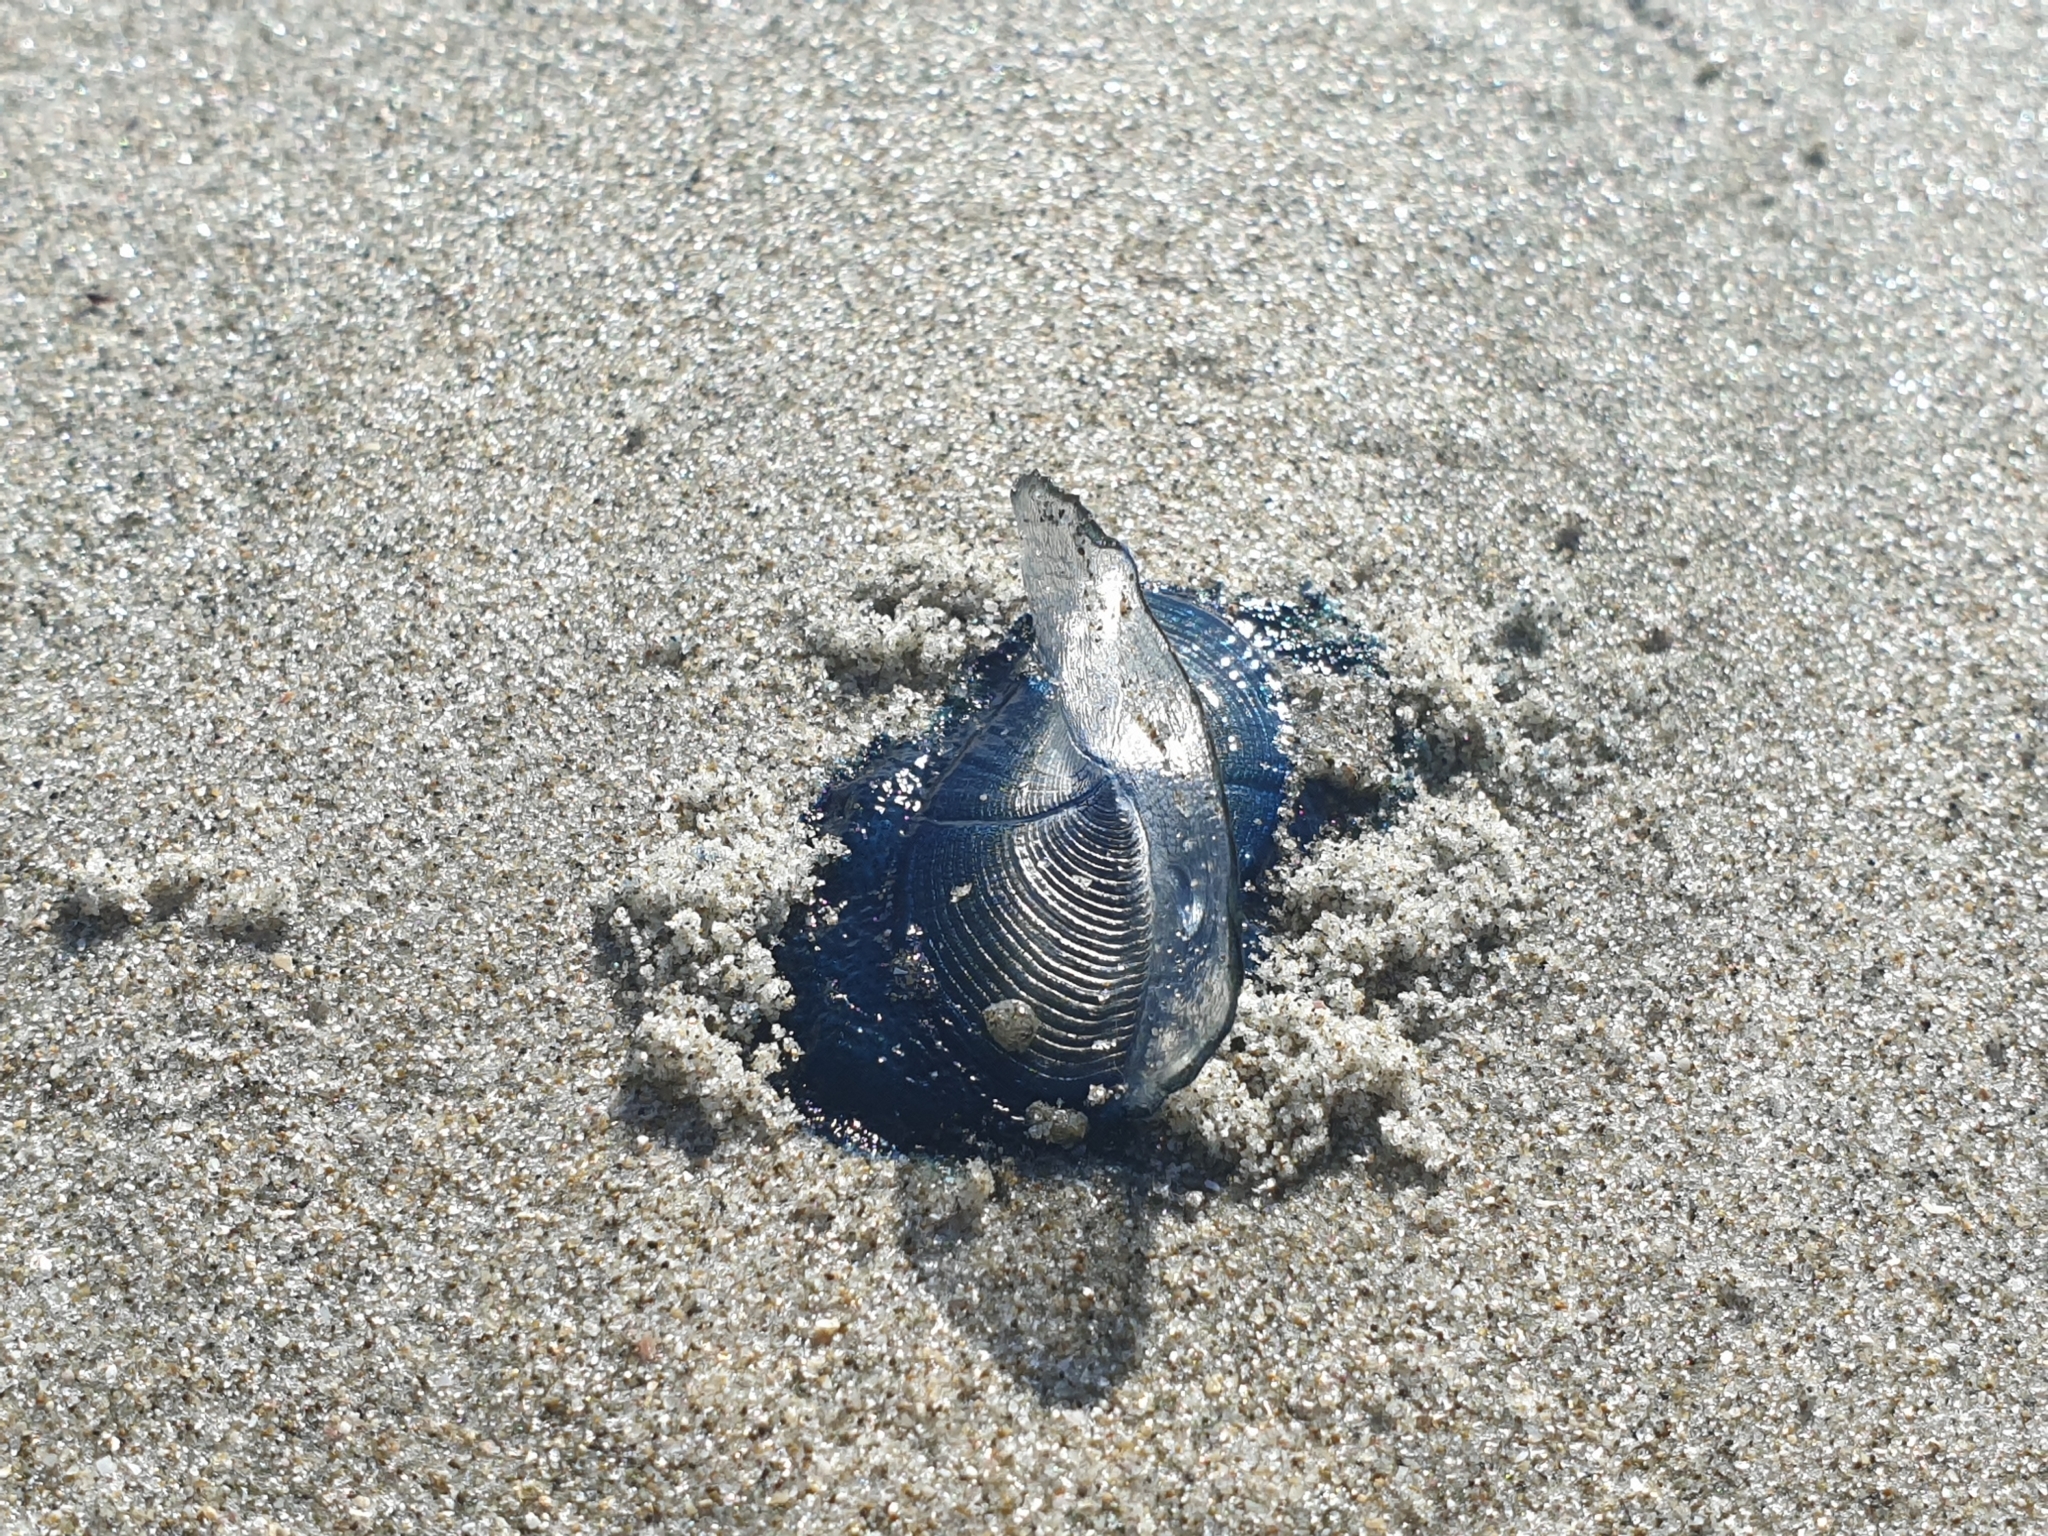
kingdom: Animalia
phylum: Cnidaria
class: Hydrozoa
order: Anthoathecata
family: Porpitidae
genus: Velella
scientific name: Velella velella
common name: By-the-wind-sailor
